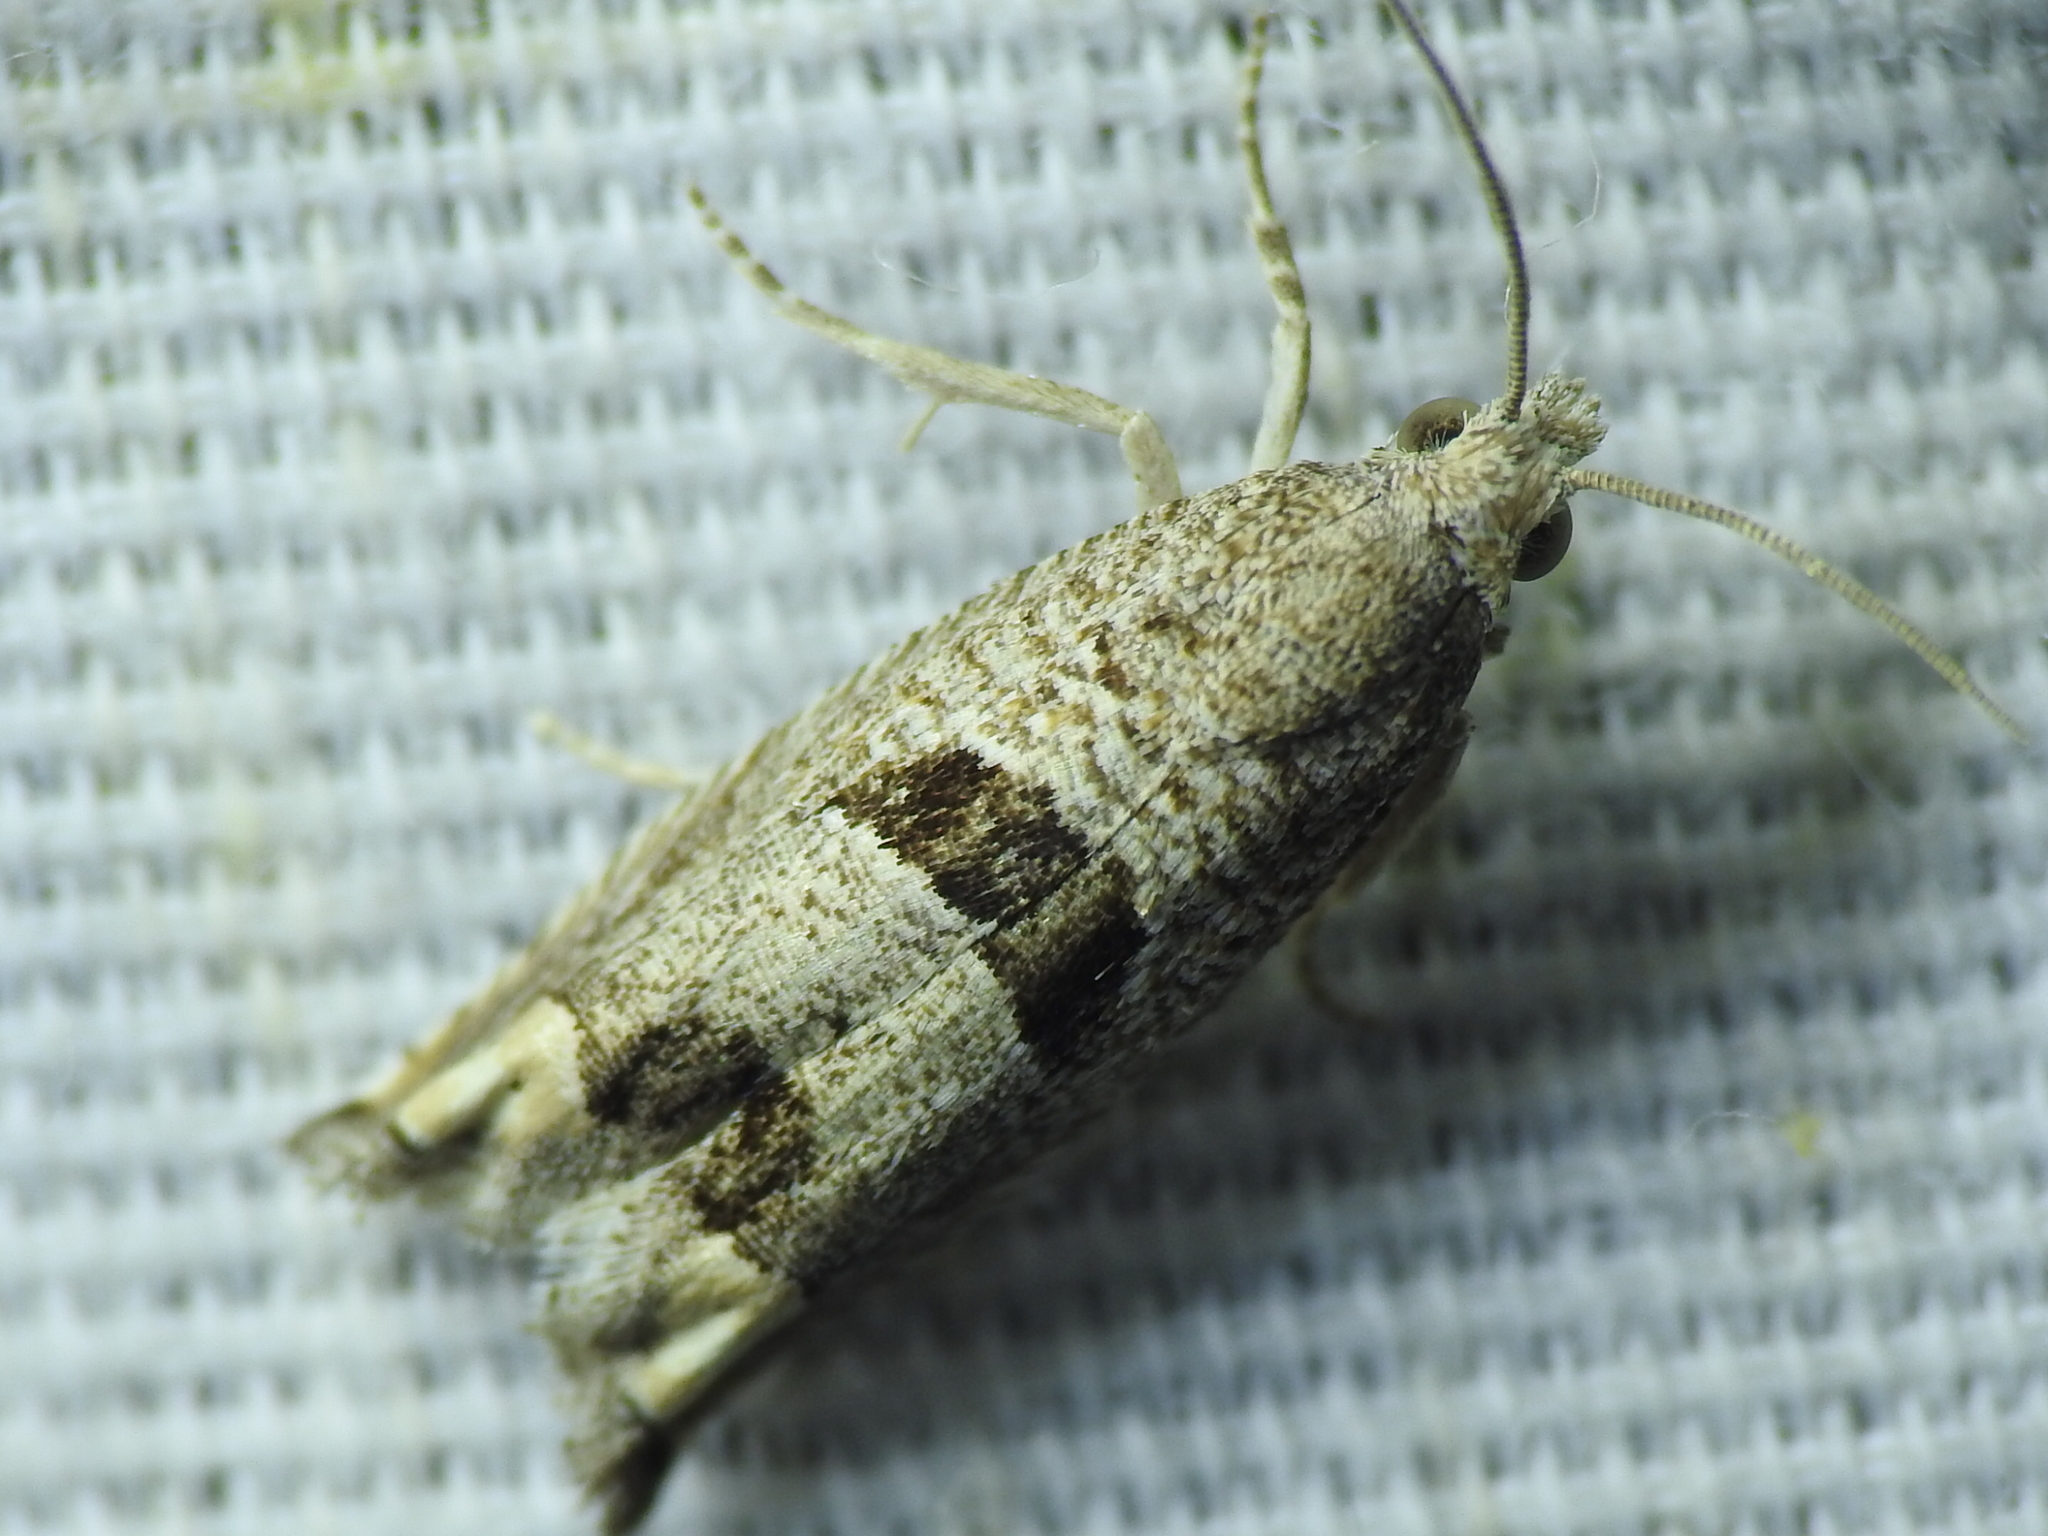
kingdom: Animalia
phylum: Arthropoda
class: Insecta
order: Lepidoptera
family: Tortricidae
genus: Suleima
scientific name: Suleima helianthana
